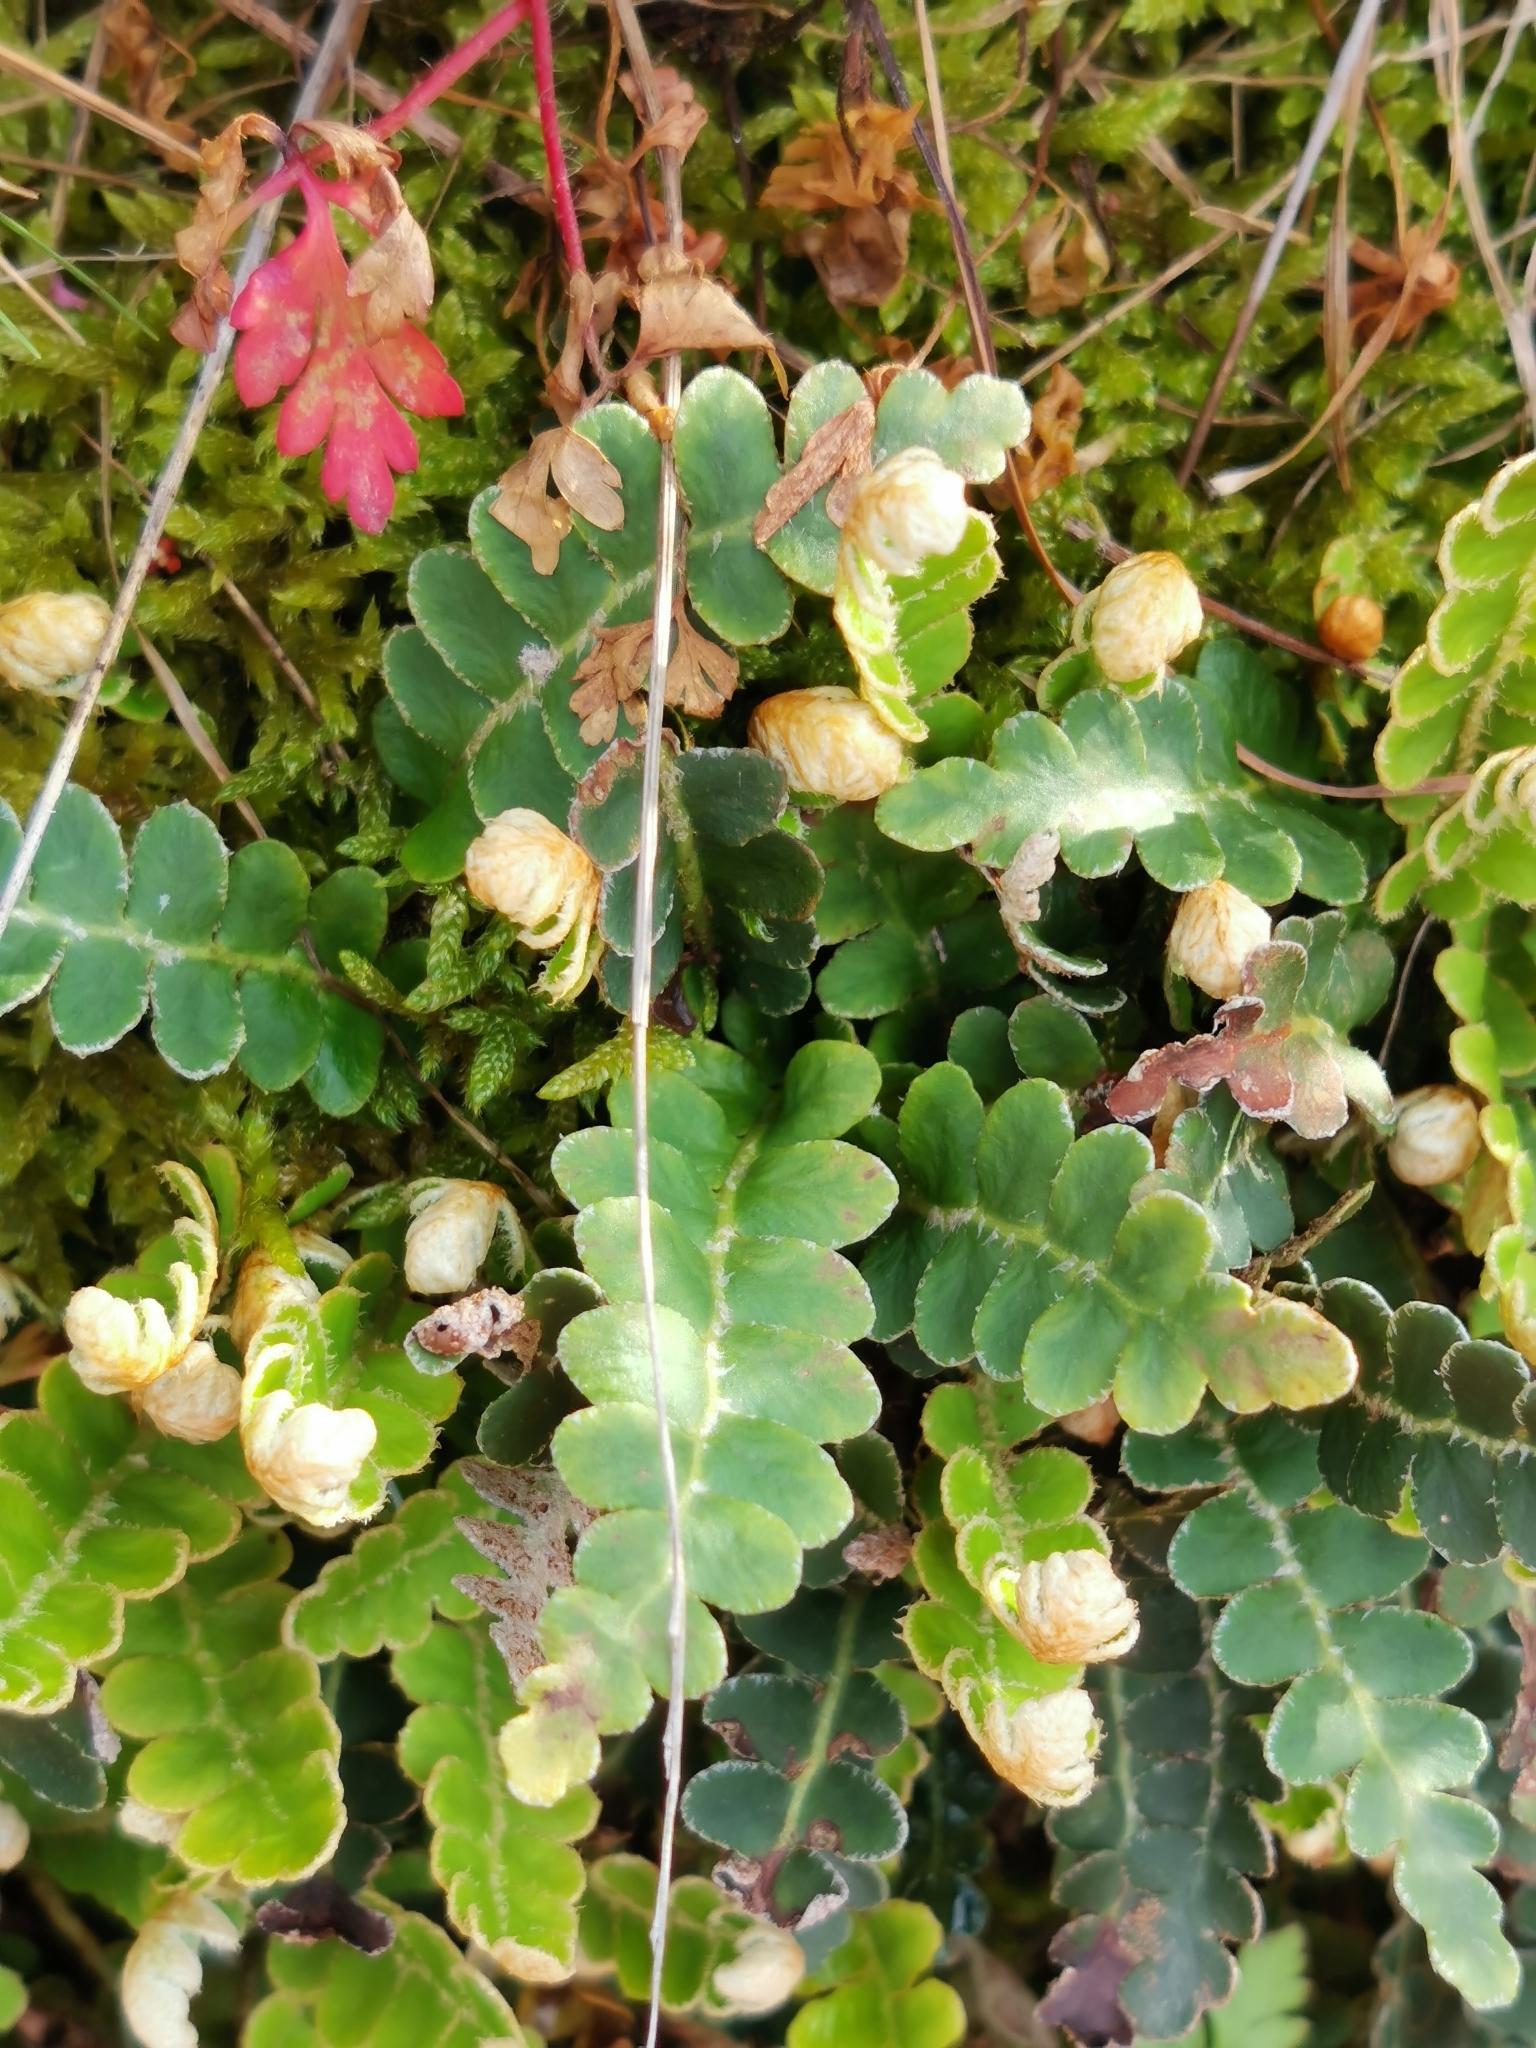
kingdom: Plantae
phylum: Tracheophyta
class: Polypodiopsida
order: Polypodiales
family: Aspleniaceae
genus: Asplenium
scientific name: Asplenium ceterach
